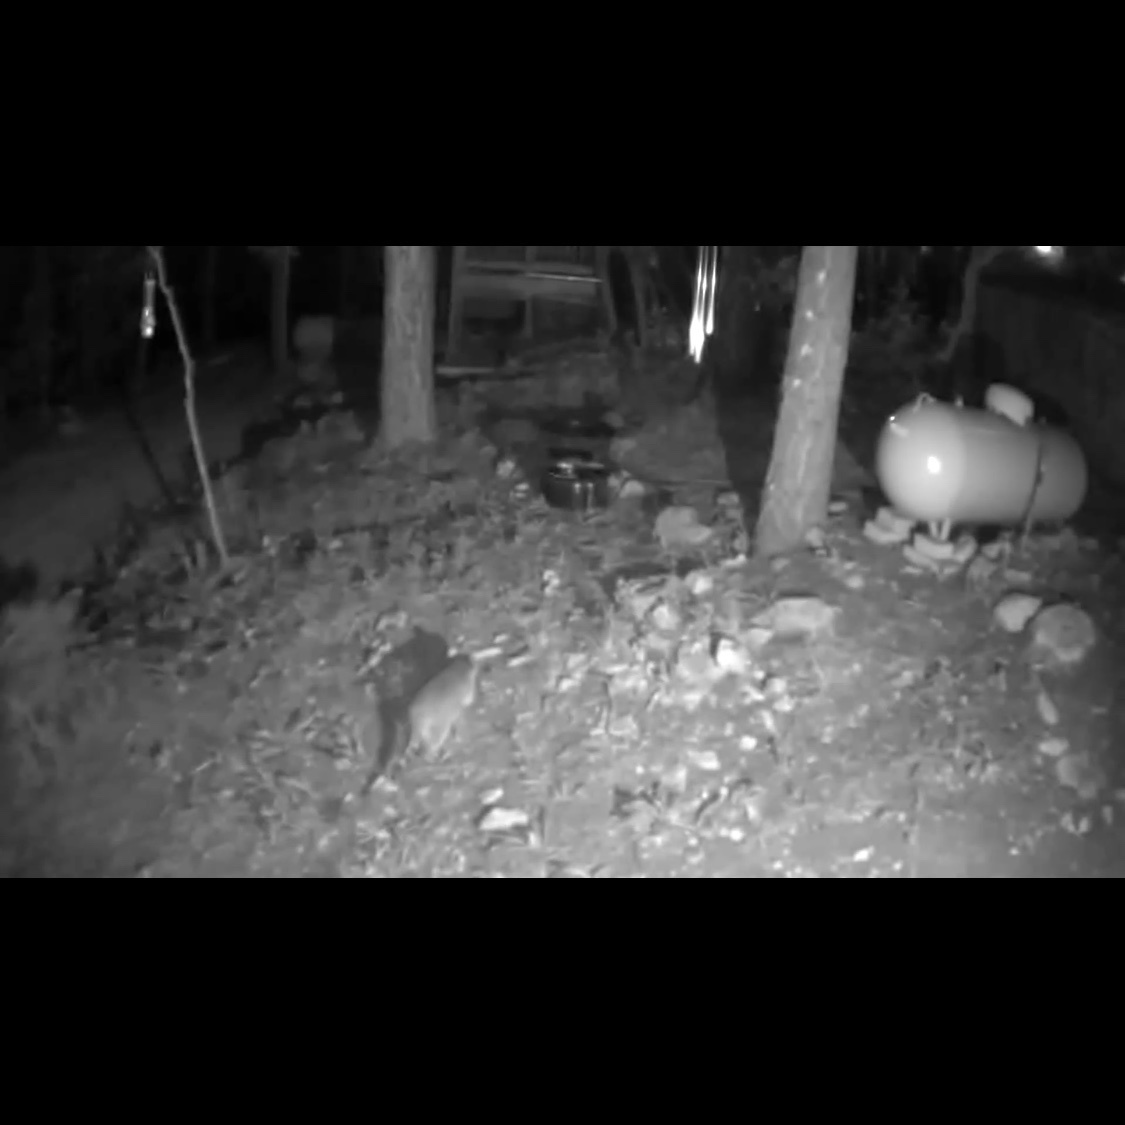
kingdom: Animalia
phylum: Chordata
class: Mammalia
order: Carnivora
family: Procyonidae
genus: Procyon
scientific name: Procyon lotor
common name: Raccoon
